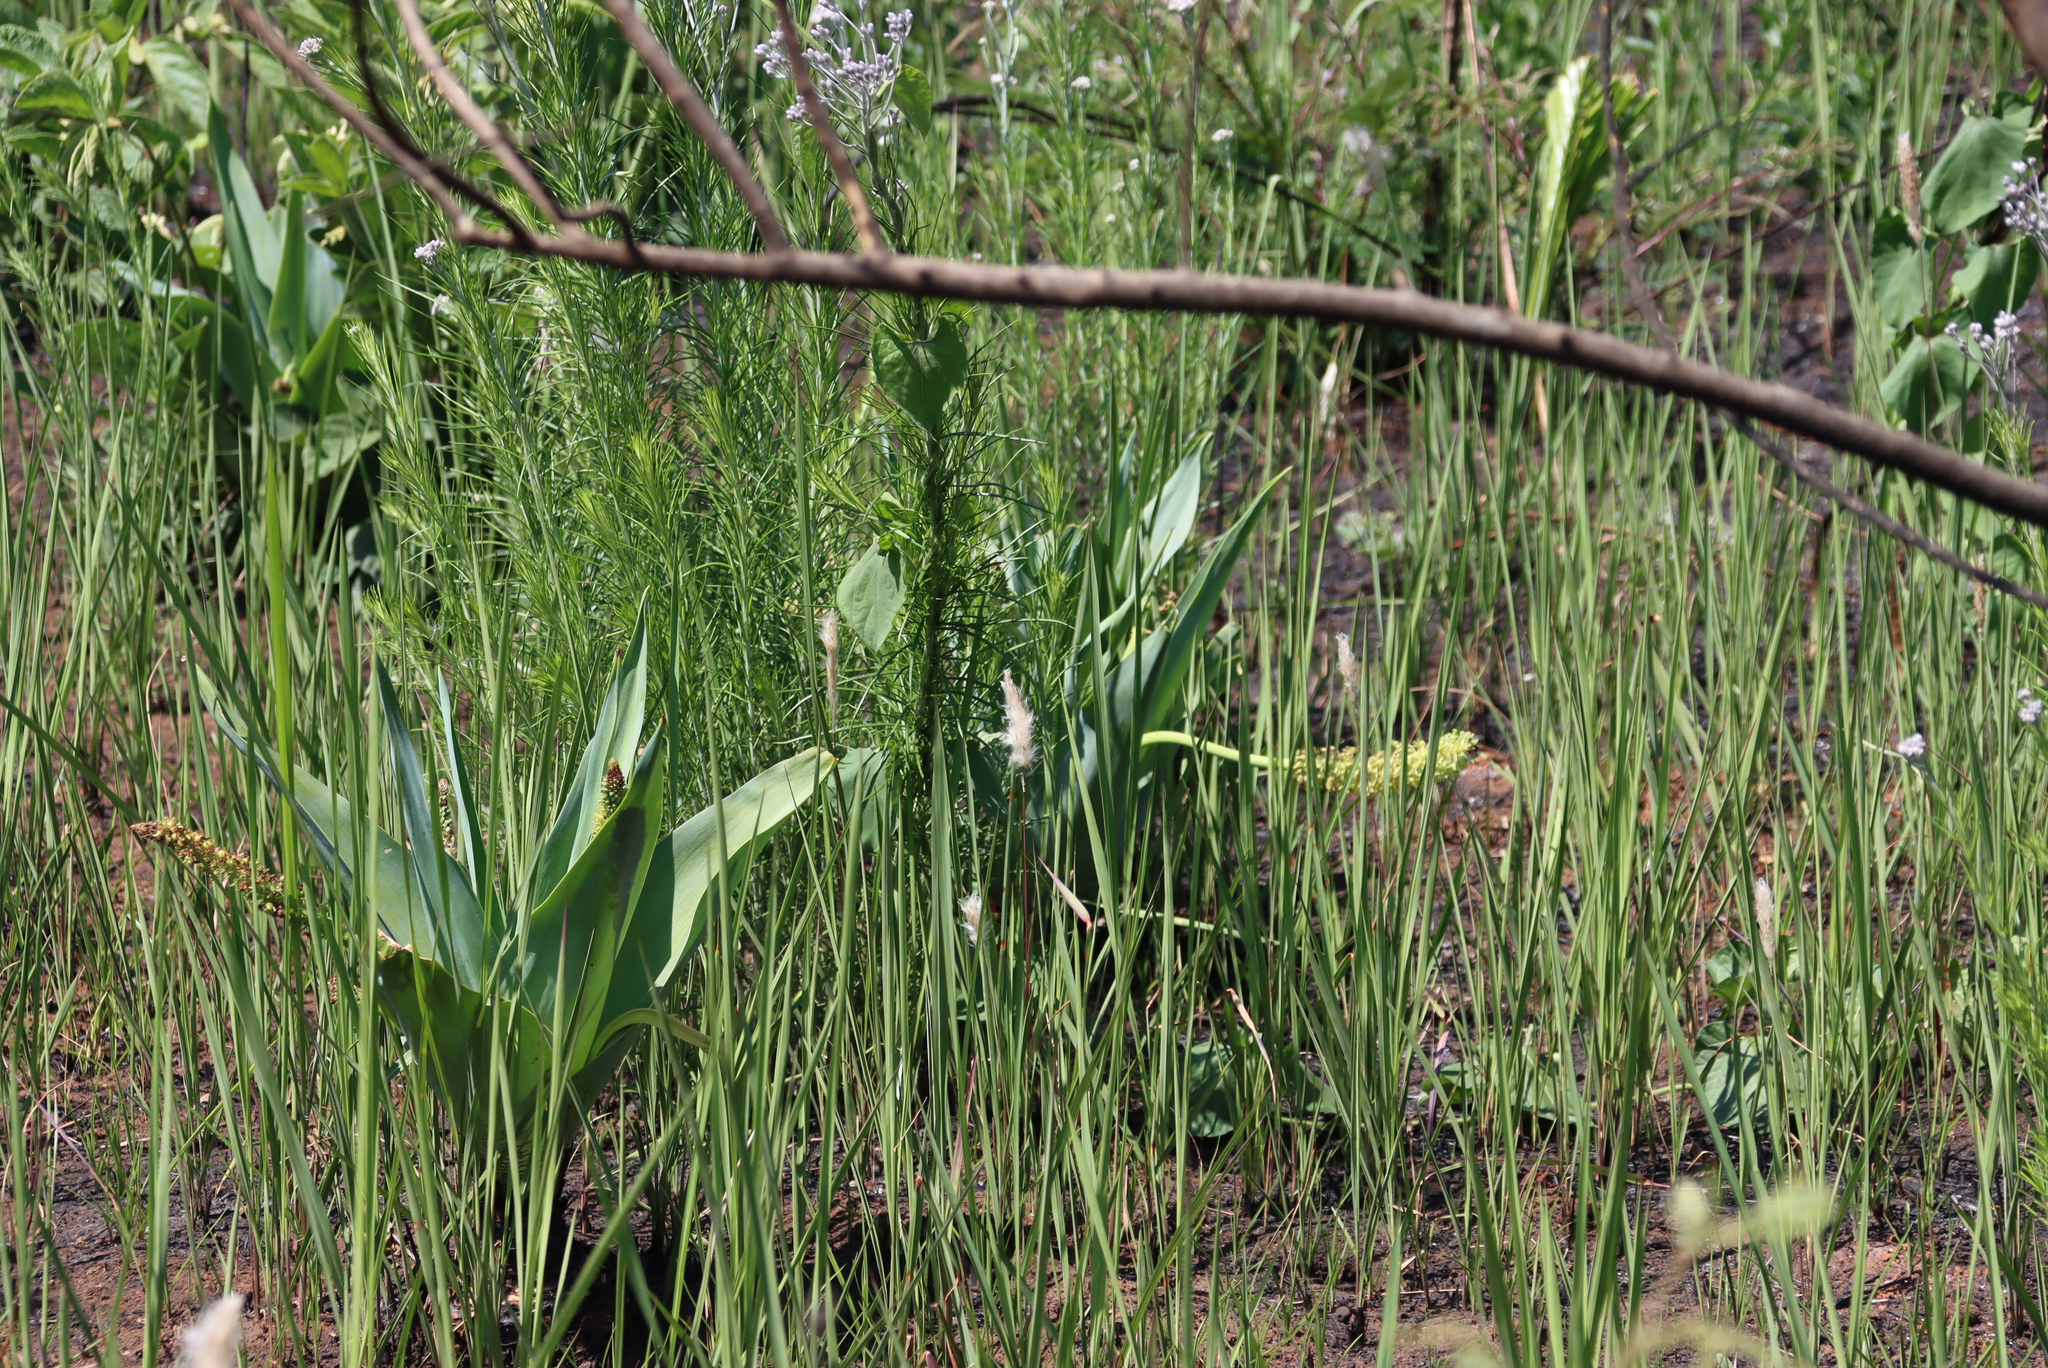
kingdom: Plantae
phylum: Tracheophyta
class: Liliopsida
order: Asparagales
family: Asparagaceae
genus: Ledebouria
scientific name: Ledebouria zebrina
